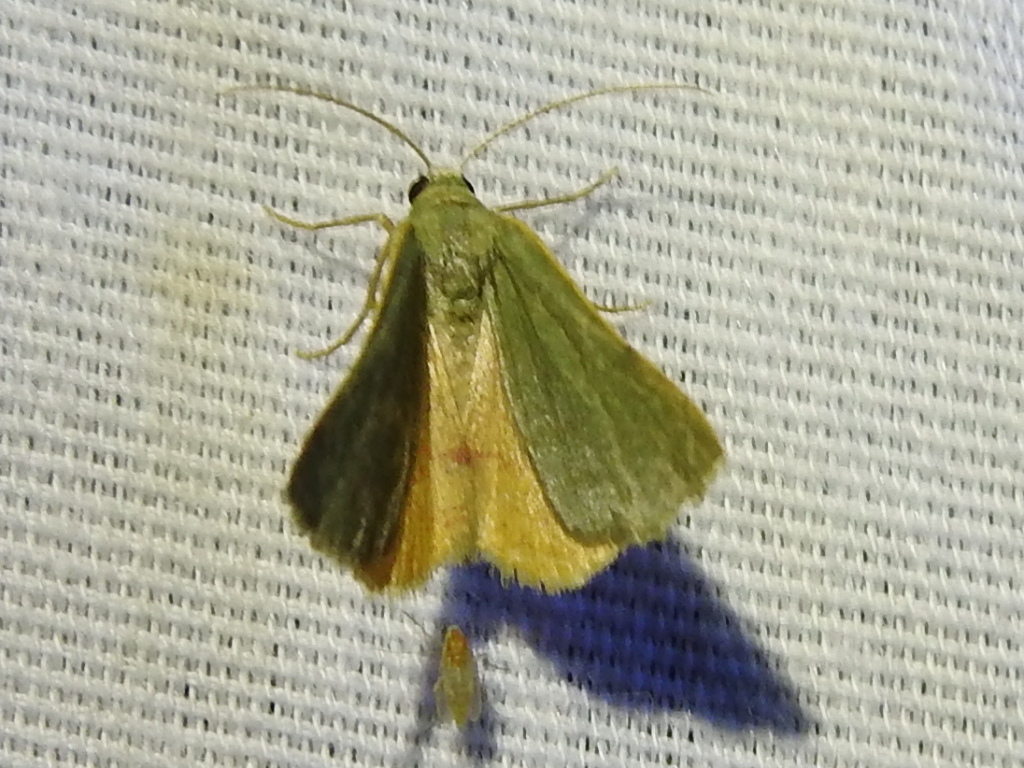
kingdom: Animalia
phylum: Arthropoda
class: Insecta
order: Lepidoptera
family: Geometridae
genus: Chloraspilates
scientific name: Chloraspilates bicoloraria
